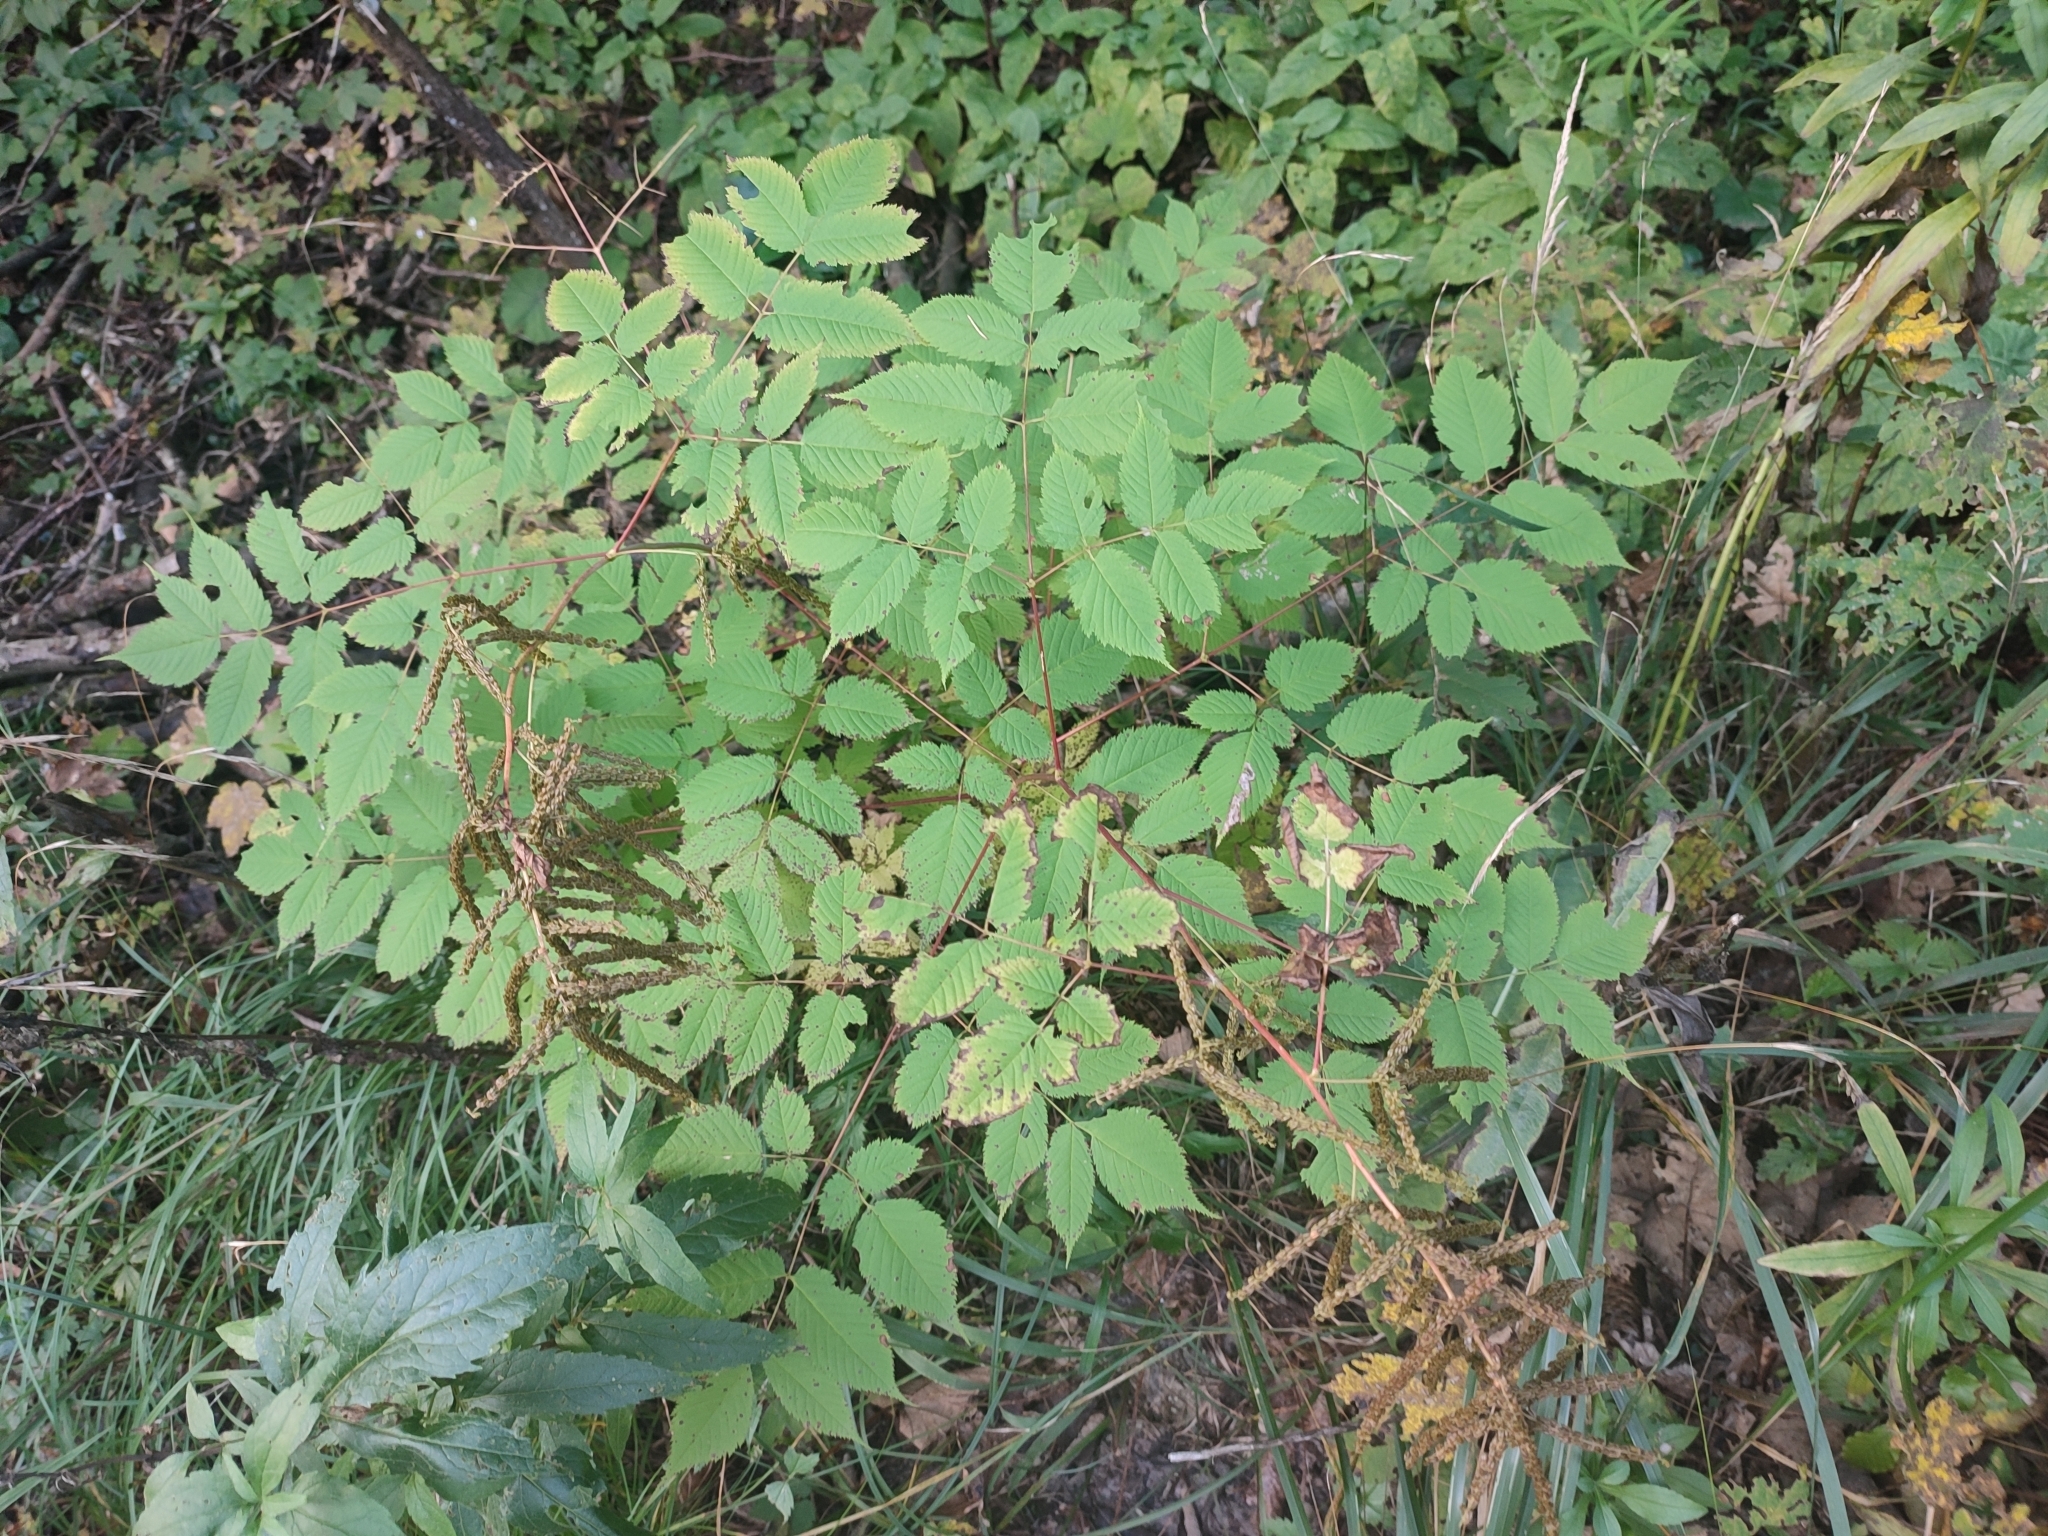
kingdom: Plantae
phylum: Tracheophyta
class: Magnoliopsida
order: Rosales
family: Rosaceae
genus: Aruncus
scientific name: Aruncus dioicus
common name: Buck's-beard
